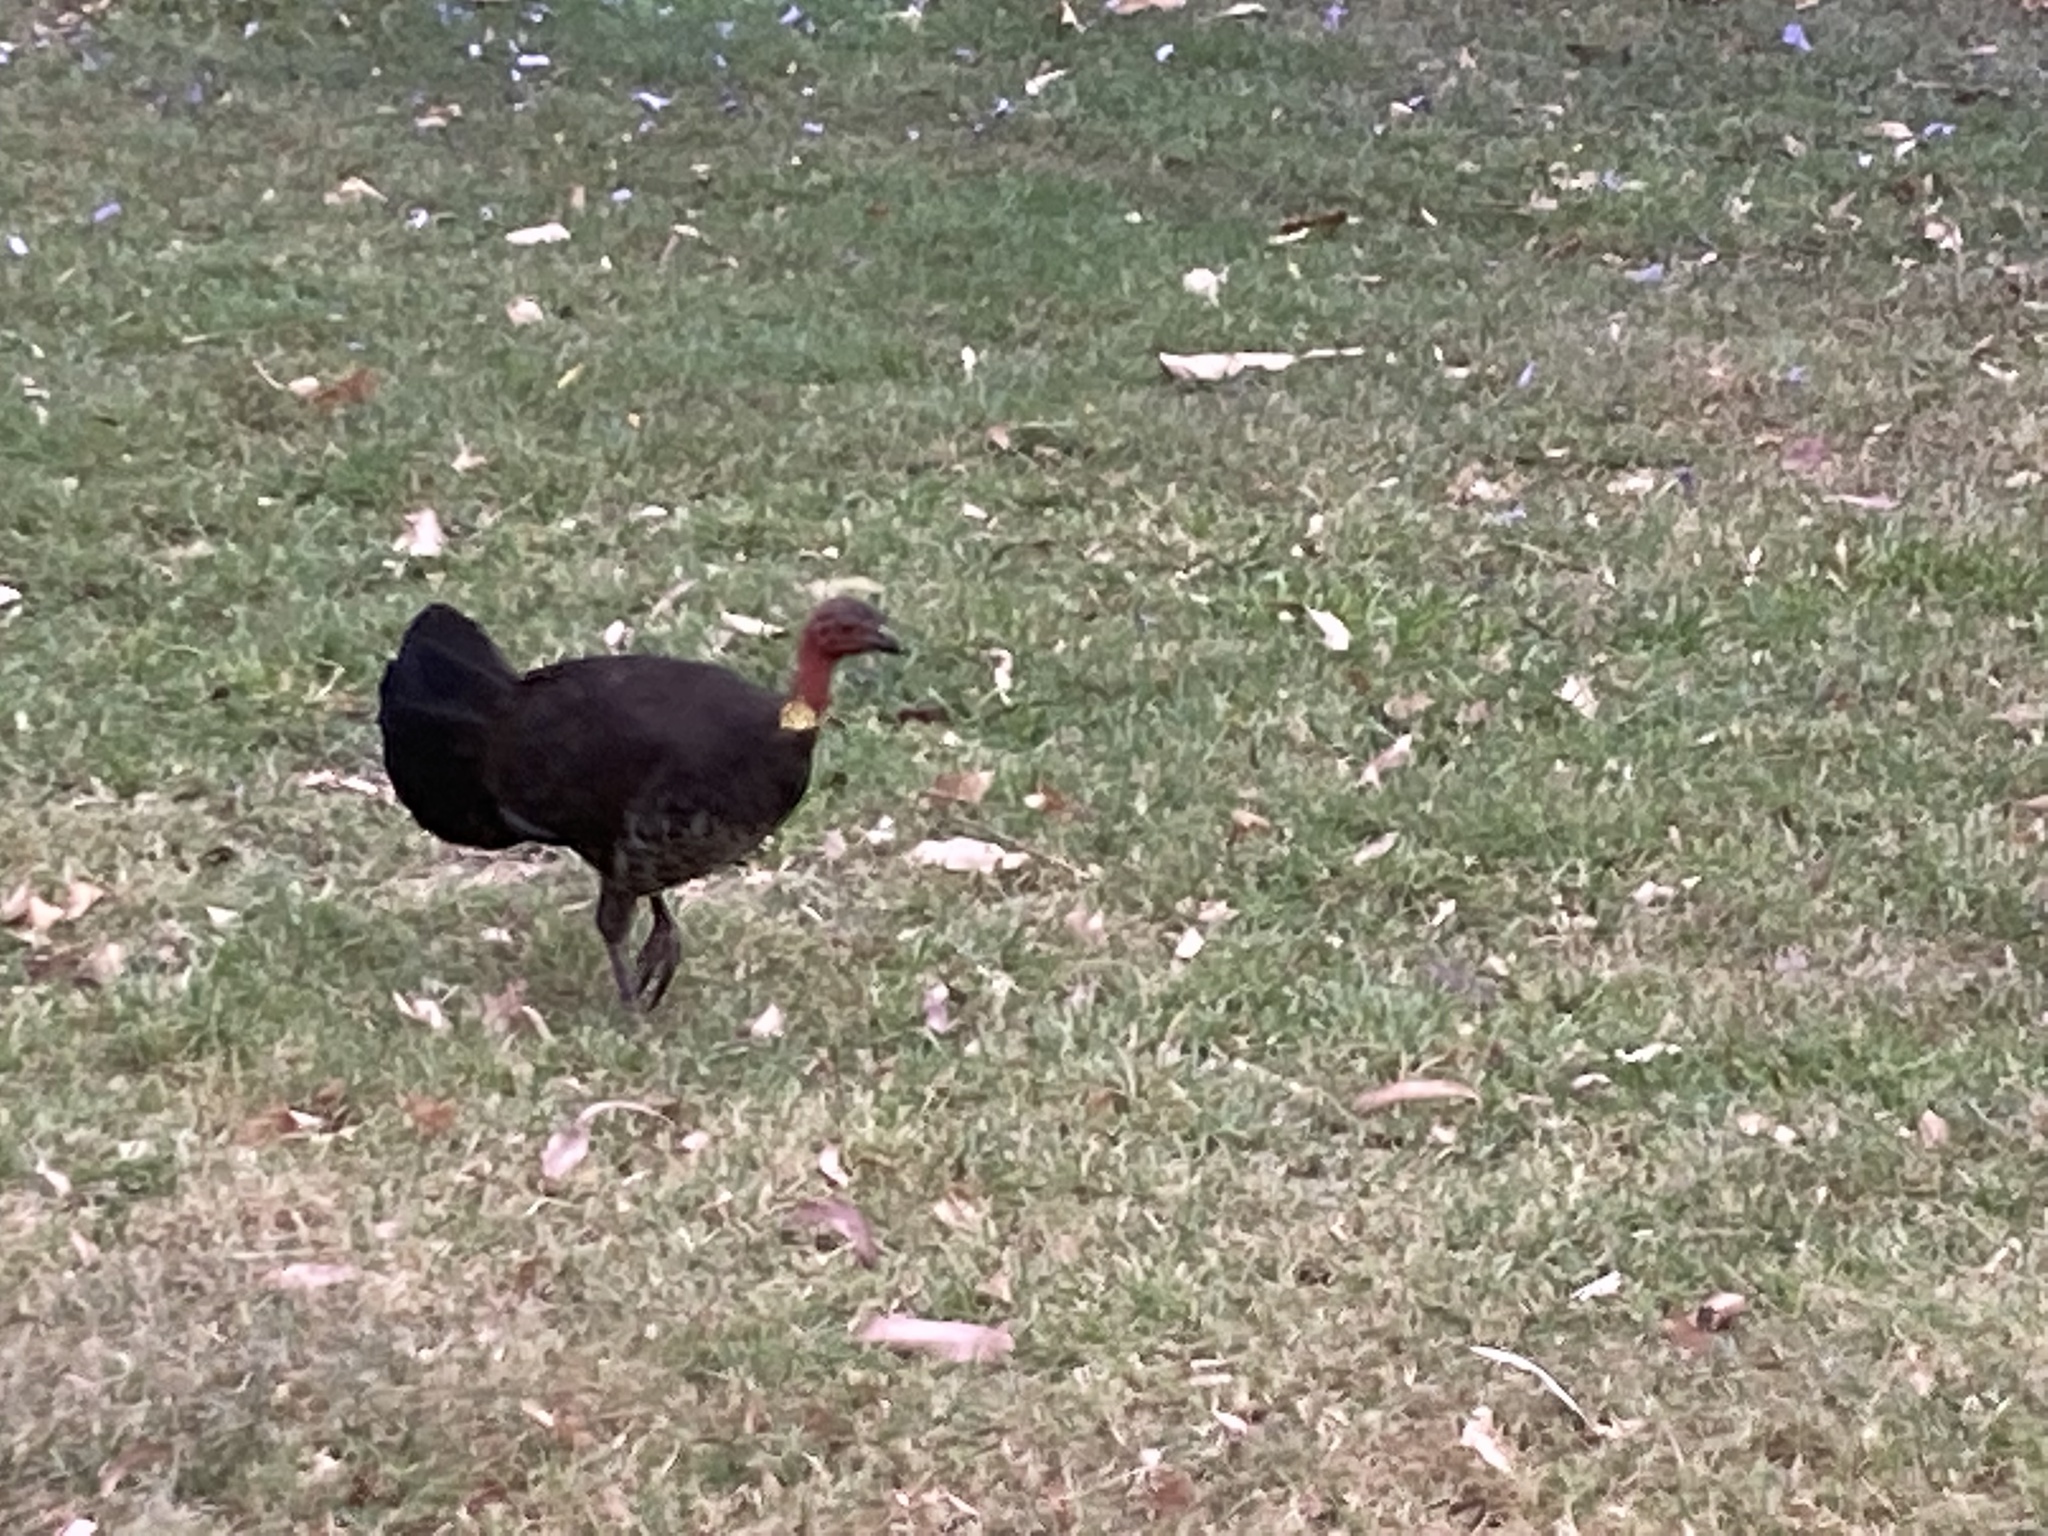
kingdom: Animalia
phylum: Chordata
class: Aves
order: Galliformes
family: Megapodiidae
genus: Alectura
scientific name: Alectura lathami
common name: Australian brushturkey
